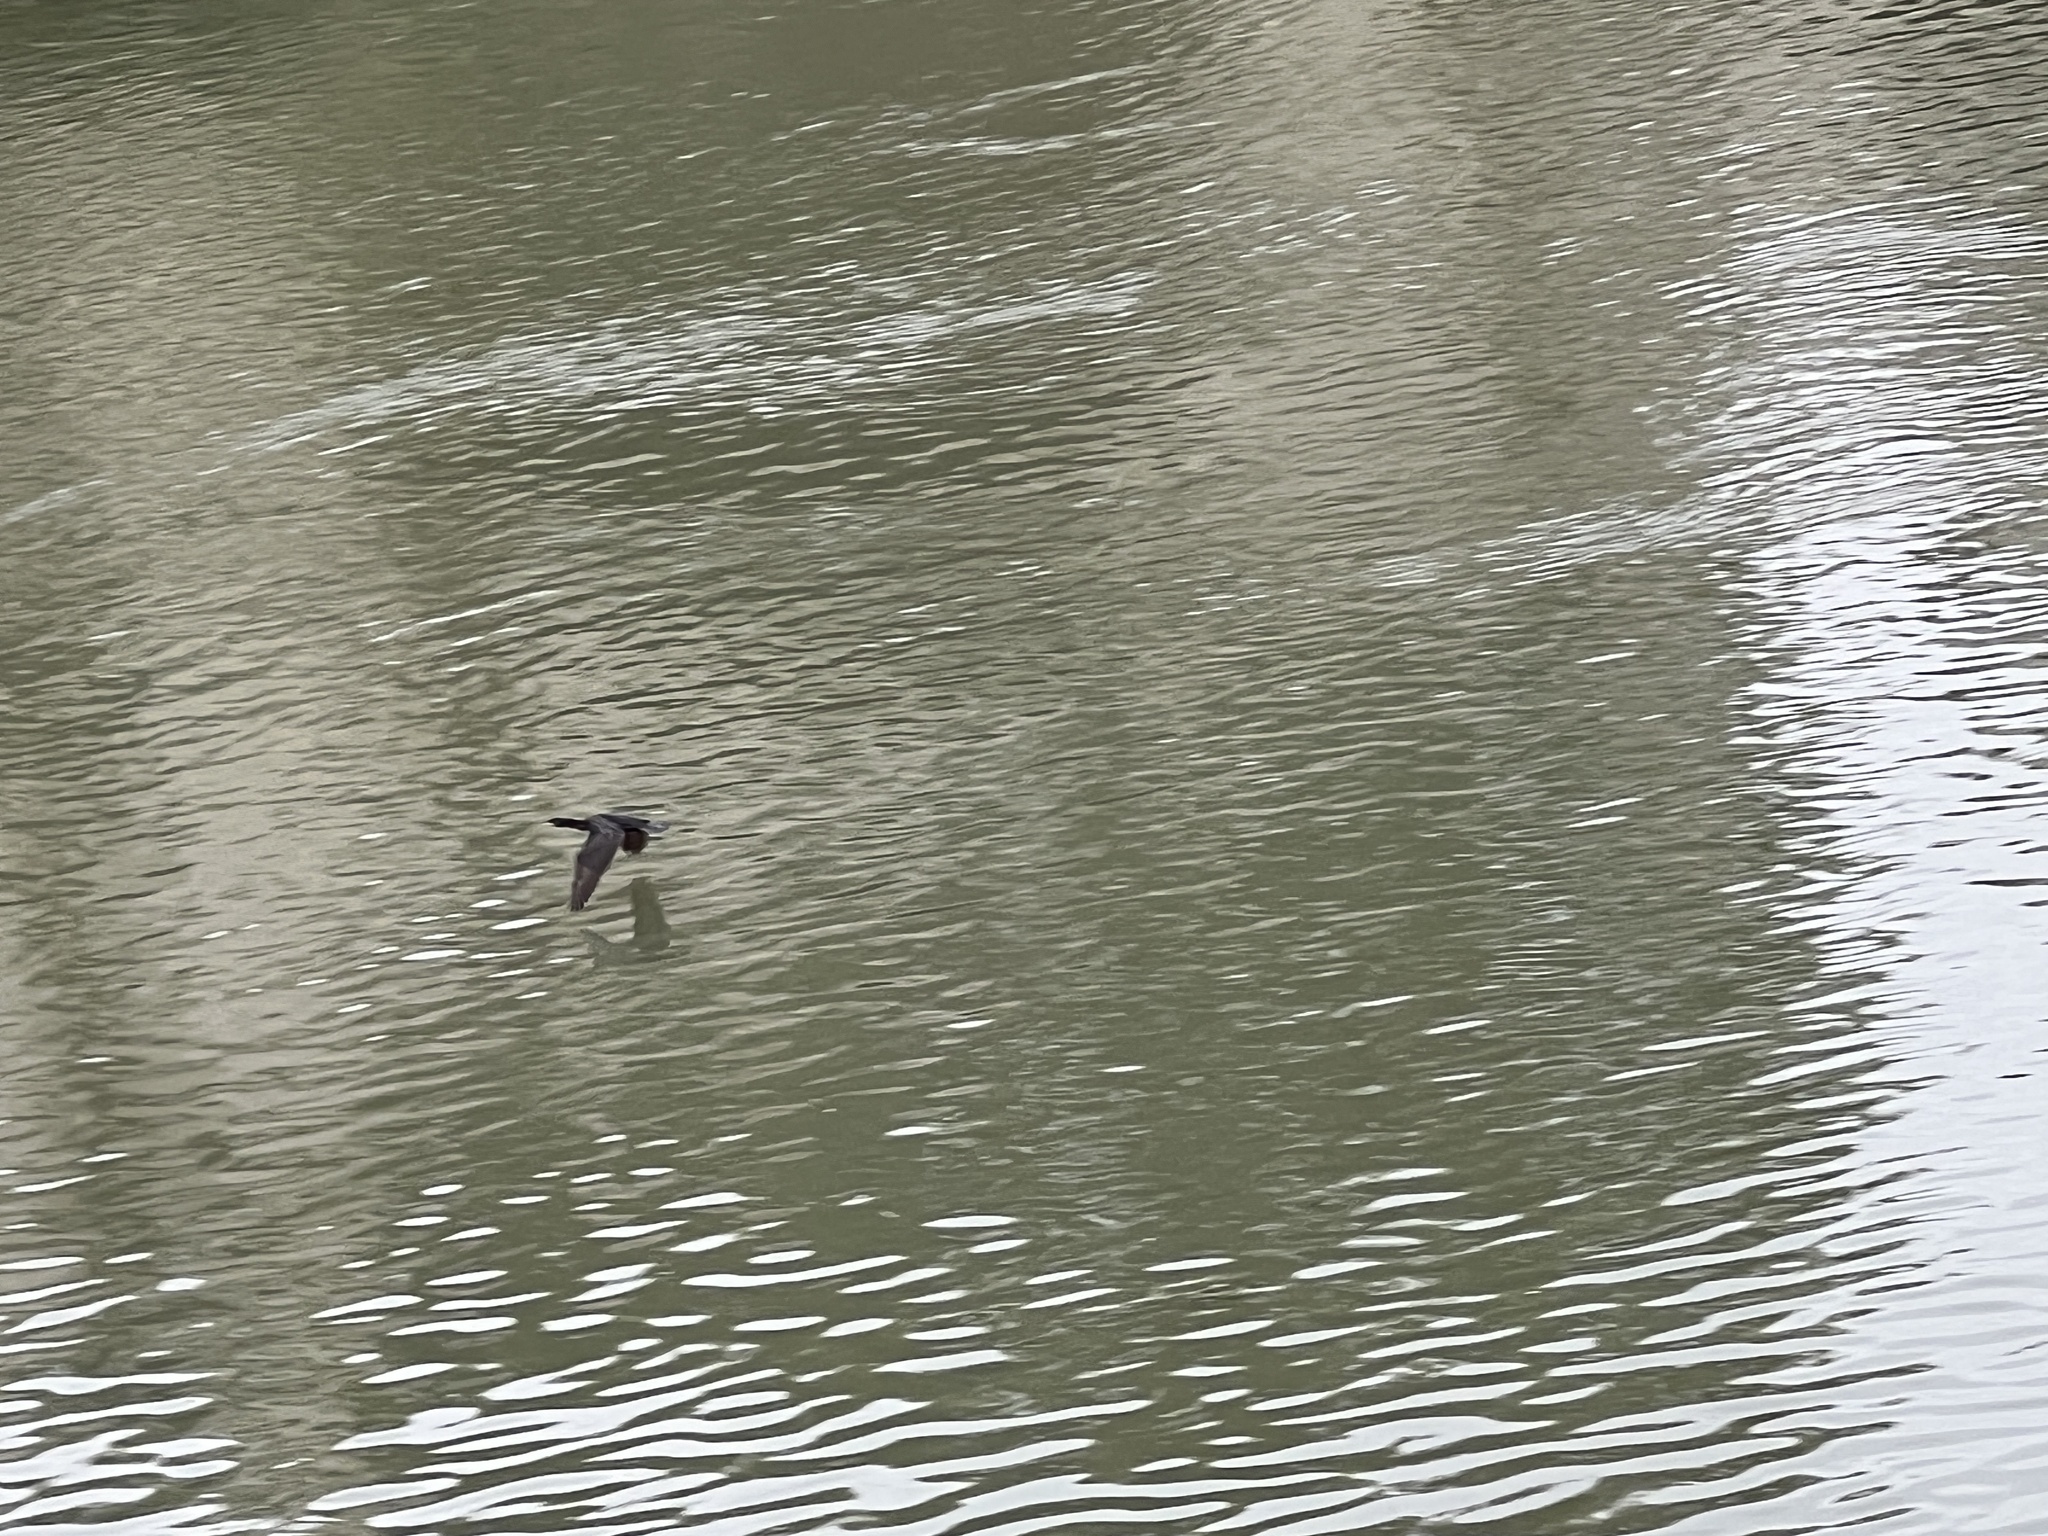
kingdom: Animalia
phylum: Chordata
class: Aves
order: Suliformes
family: Phalacrocoracidae
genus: Phalacrocorax
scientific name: Phalacrocorax carbo
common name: Great cormorant
